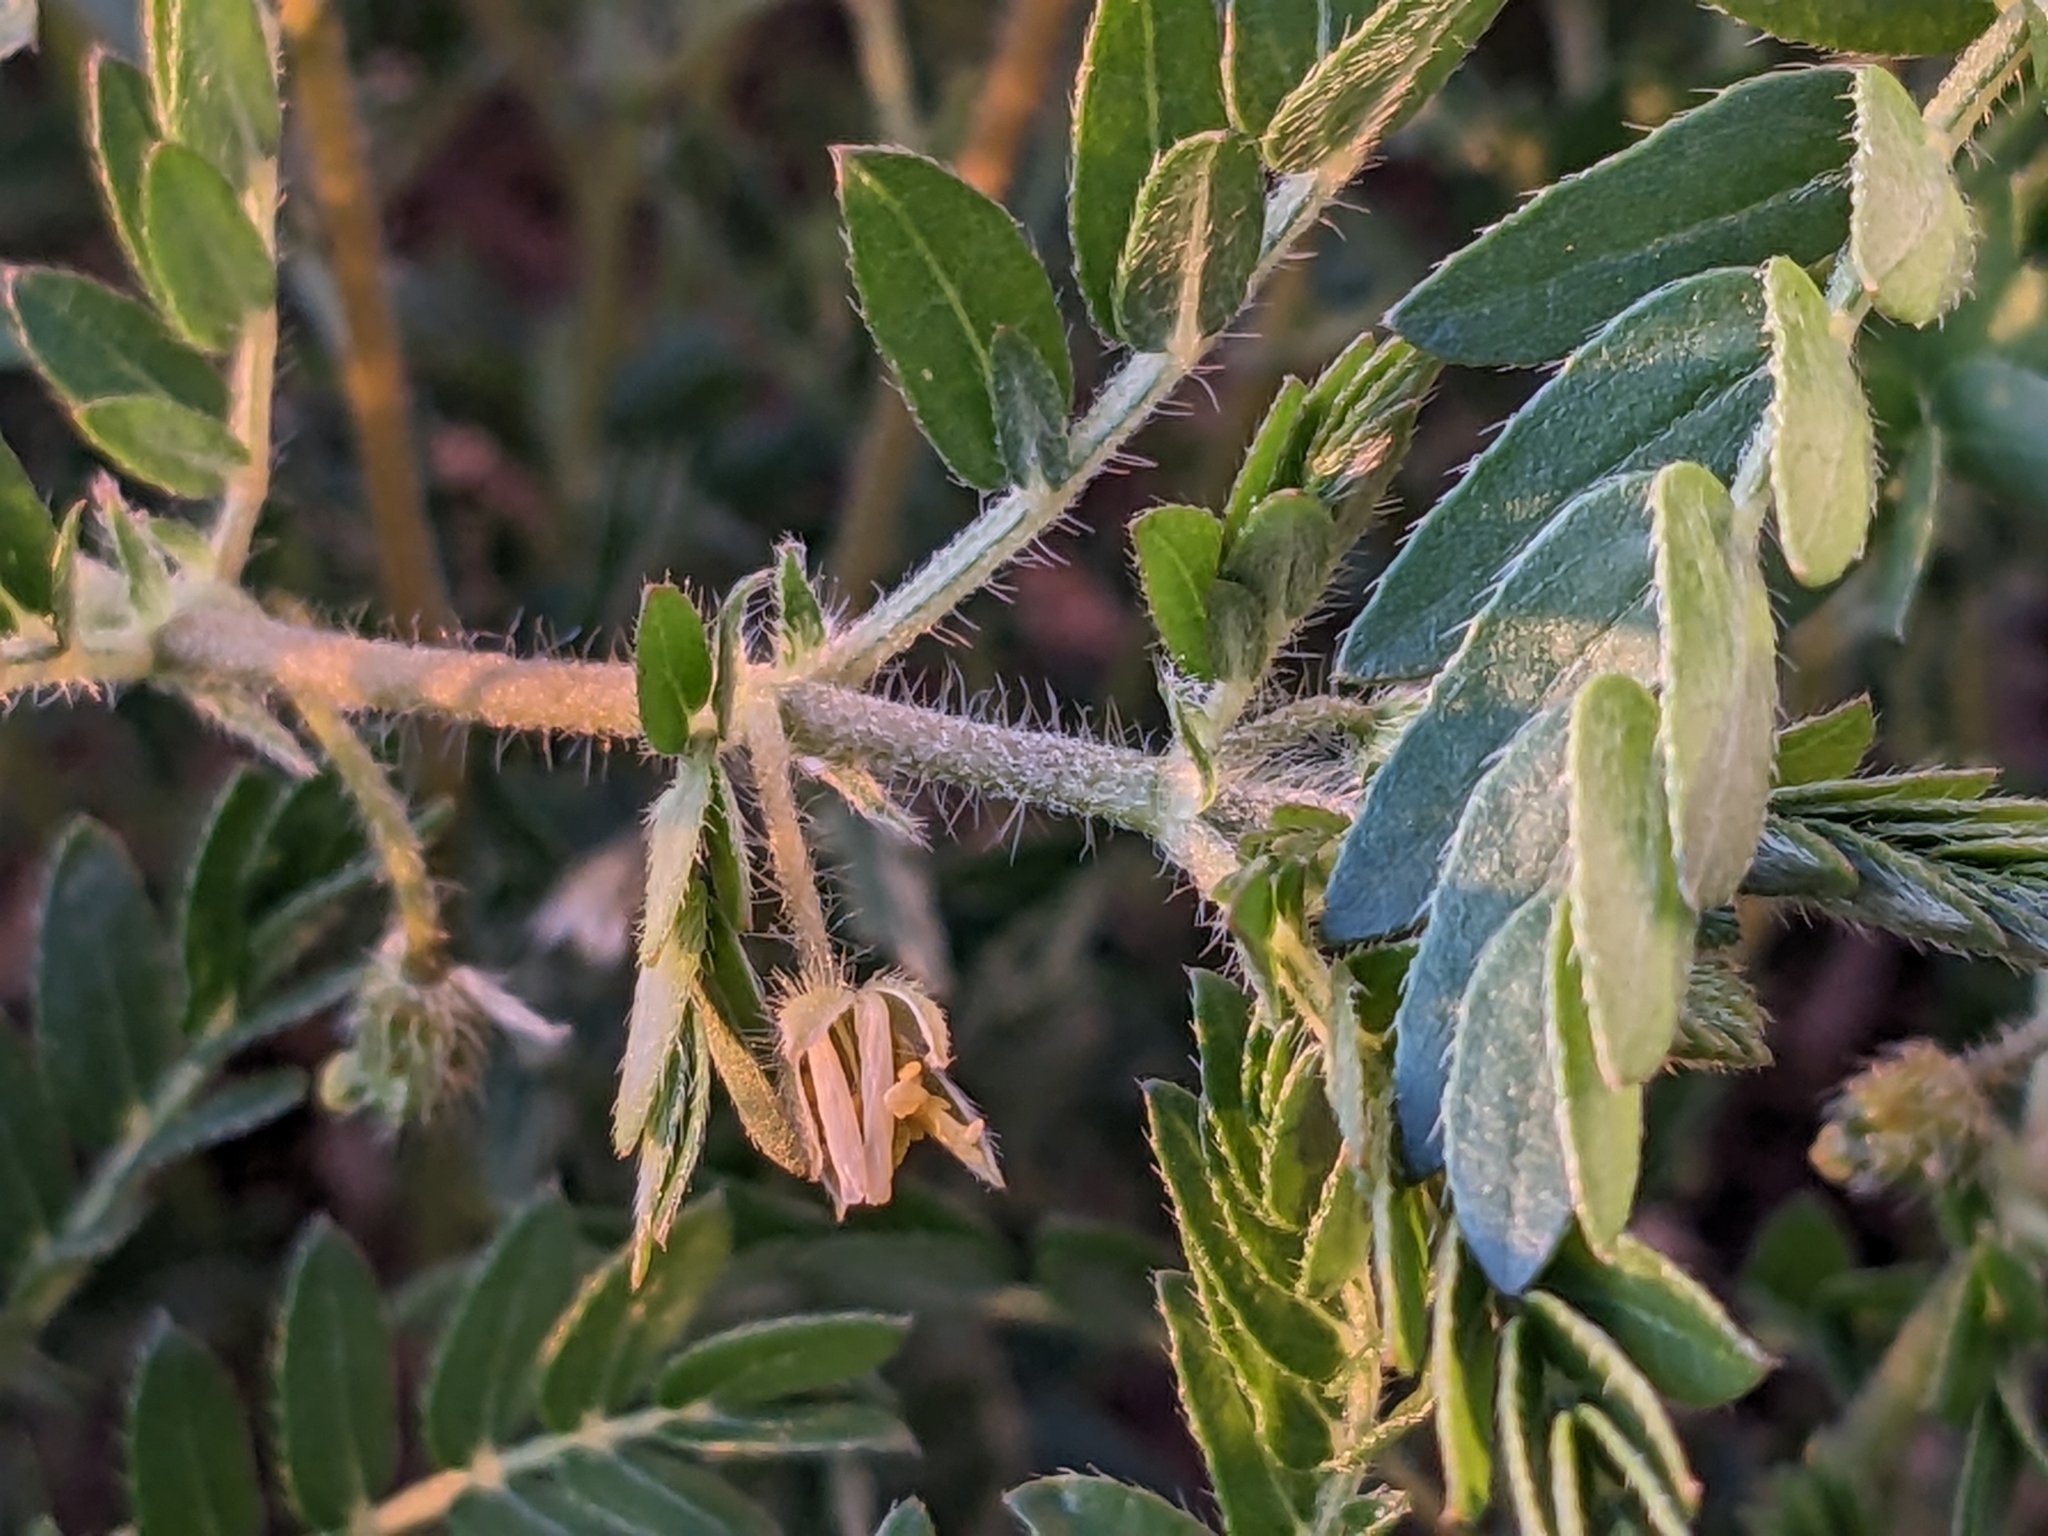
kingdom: Plantae
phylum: Tracheophyta
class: Magnoliopsida
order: Zygophyllales
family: Zygophyllaceae
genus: Tribulus
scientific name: Tribulus terrestris
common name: Puncturevine
